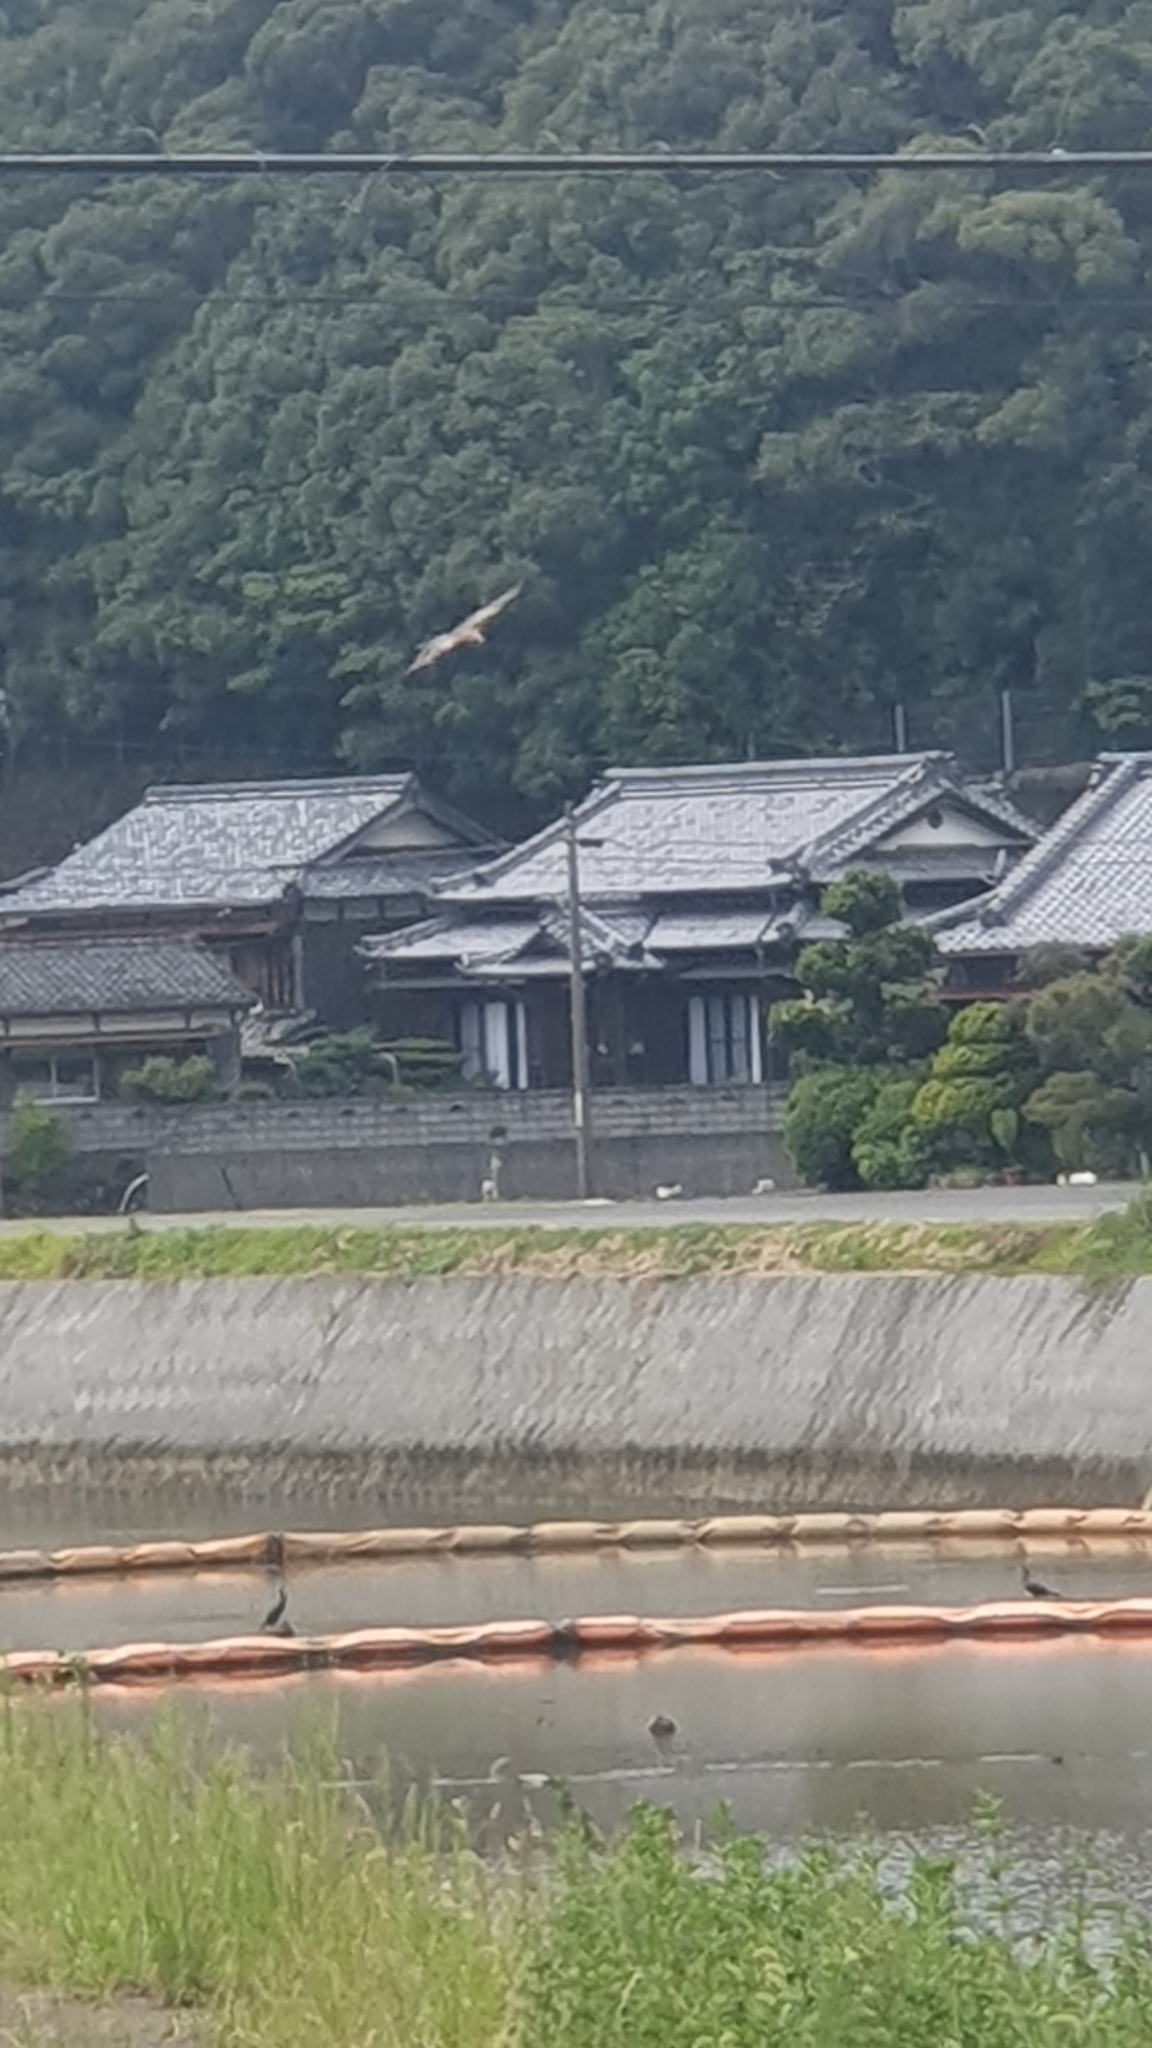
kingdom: Animalia
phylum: Chordata
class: Aves
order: Accipitriformes
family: Accipitridae
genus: Milvus
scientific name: Milvus migrans
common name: Black kite
